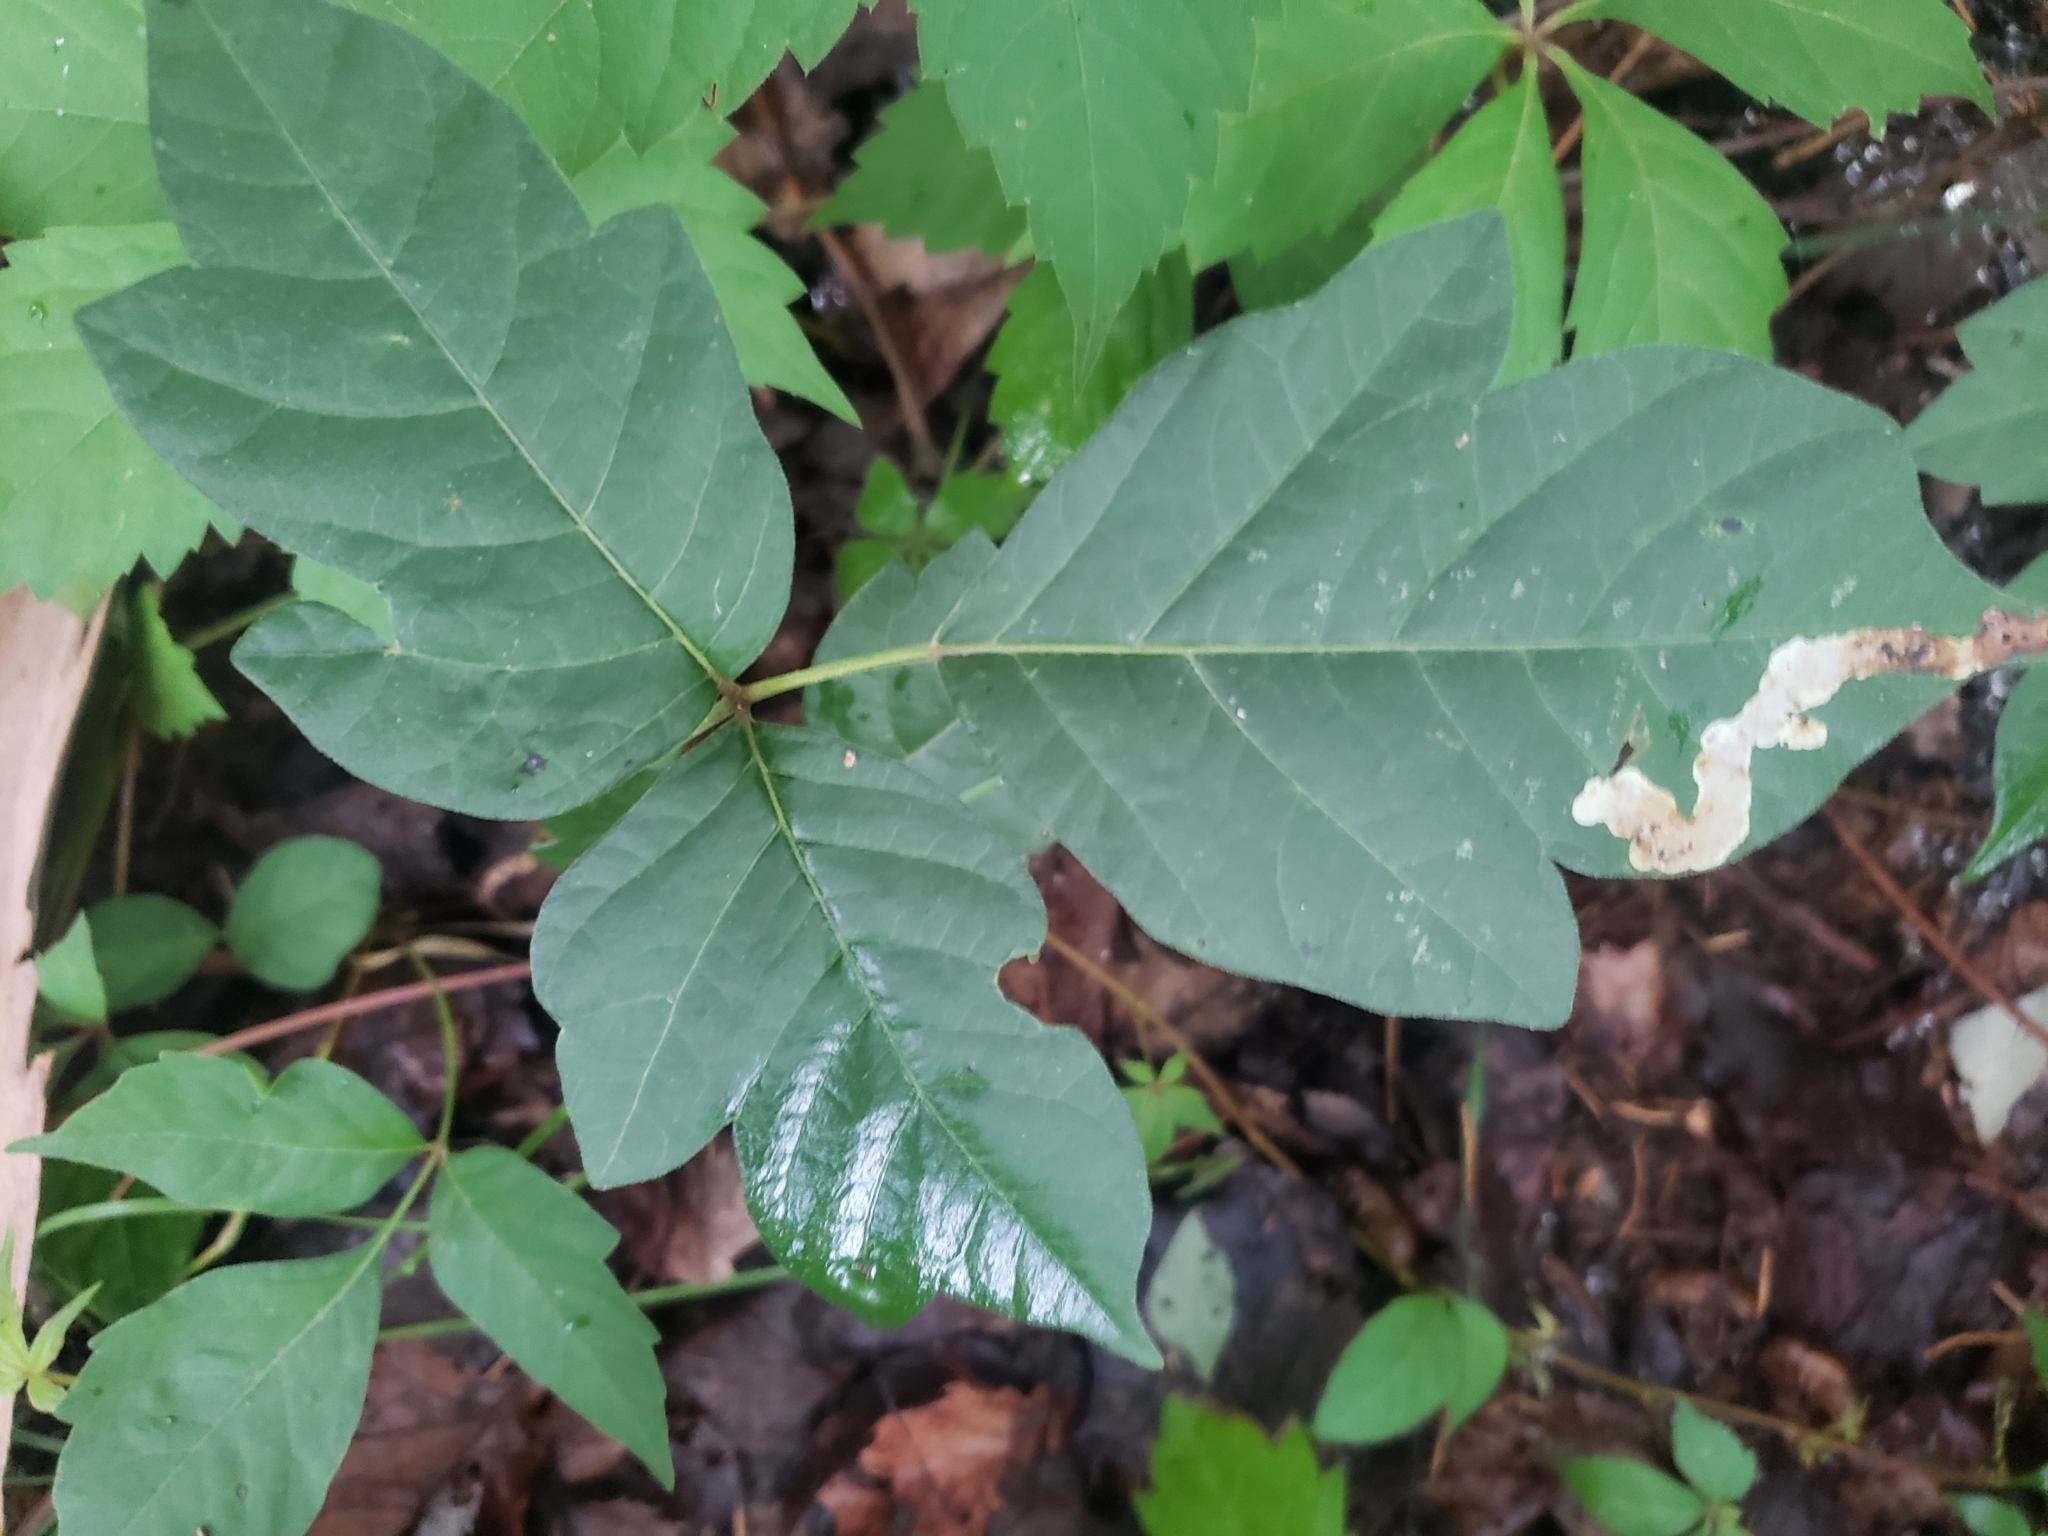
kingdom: Animalia
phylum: Arthropoda
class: Insecta
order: Lepidoptera
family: Gracillariidae
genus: Cameraria
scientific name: Cameraria guttifinitella
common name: Poison ivy leaf-miner moth
